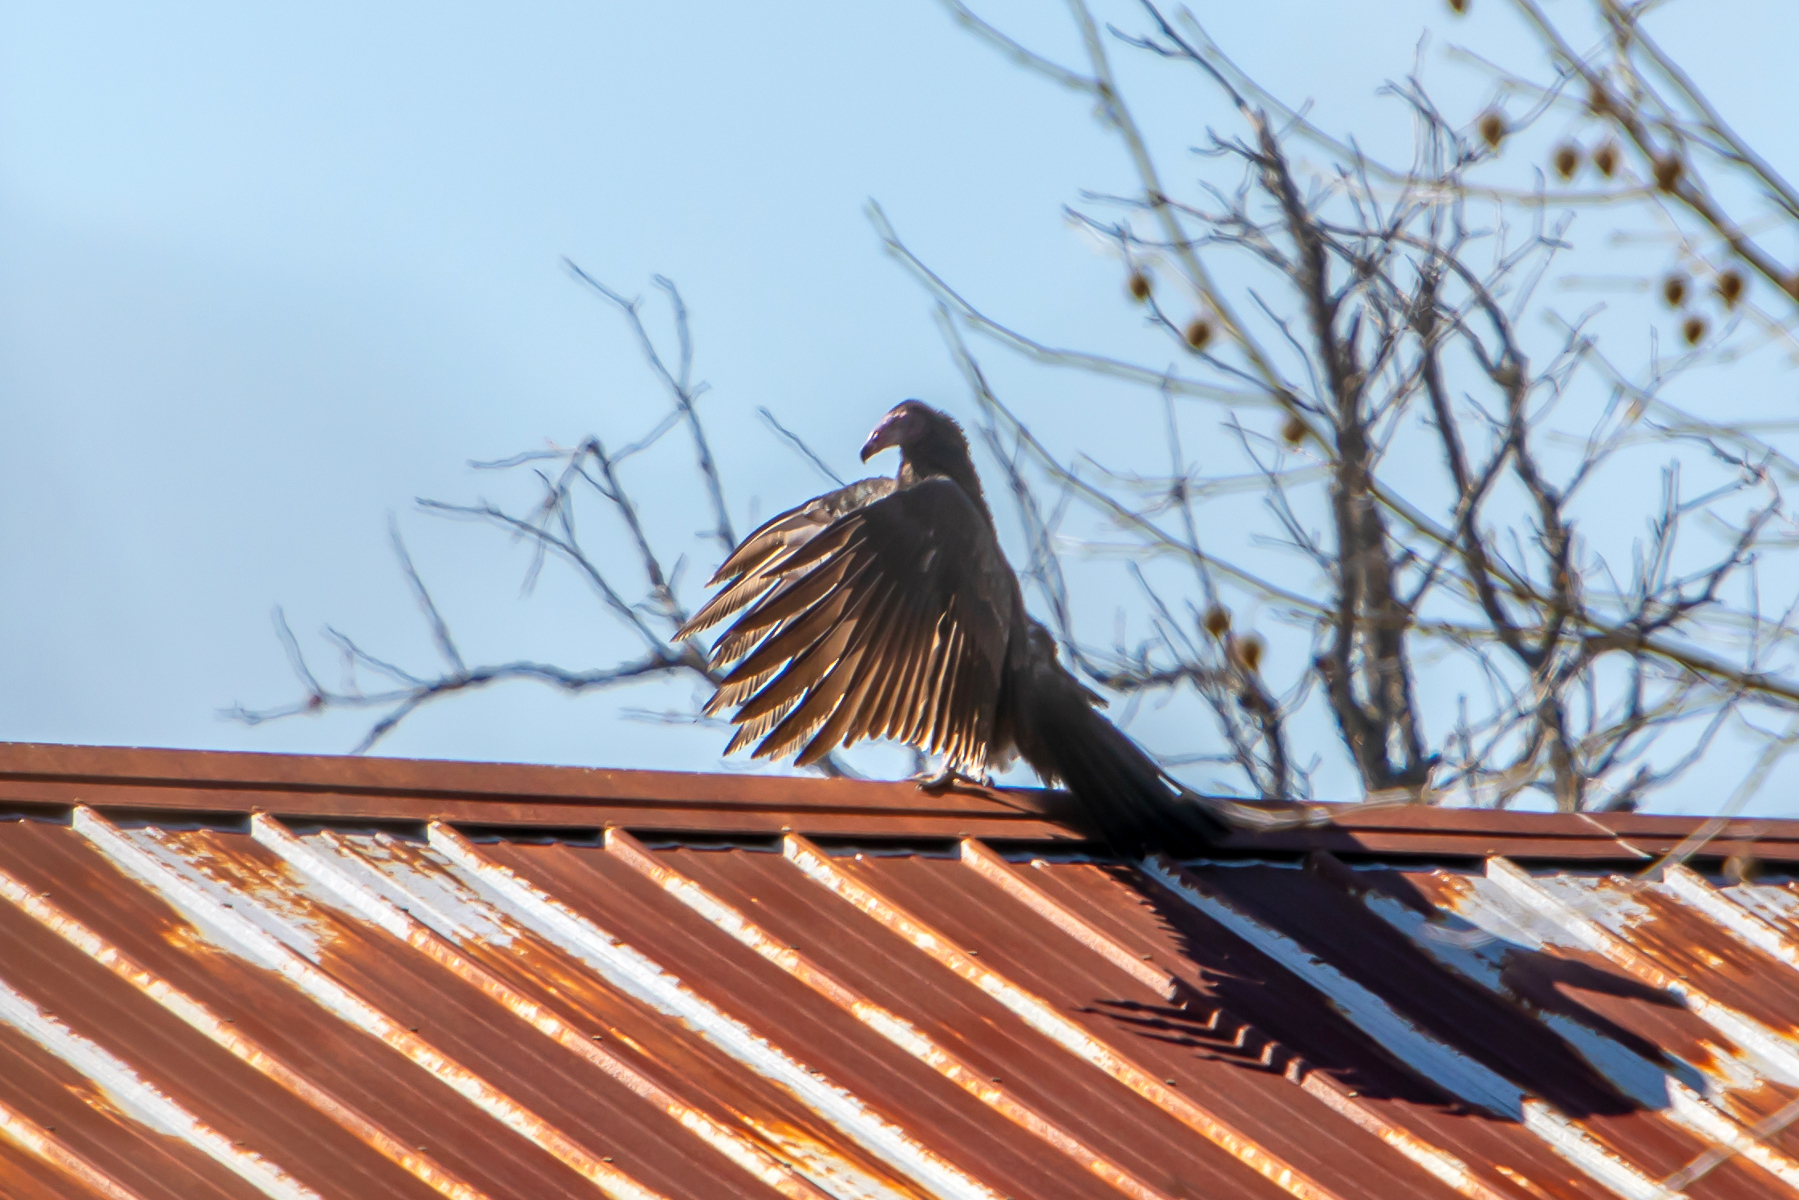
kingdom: Animalia
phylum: Chordata
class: Aves
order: Accipitriformes
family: Cathartidae
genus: Cathartes
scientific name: Cathartes aura
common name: Turkey vulture
